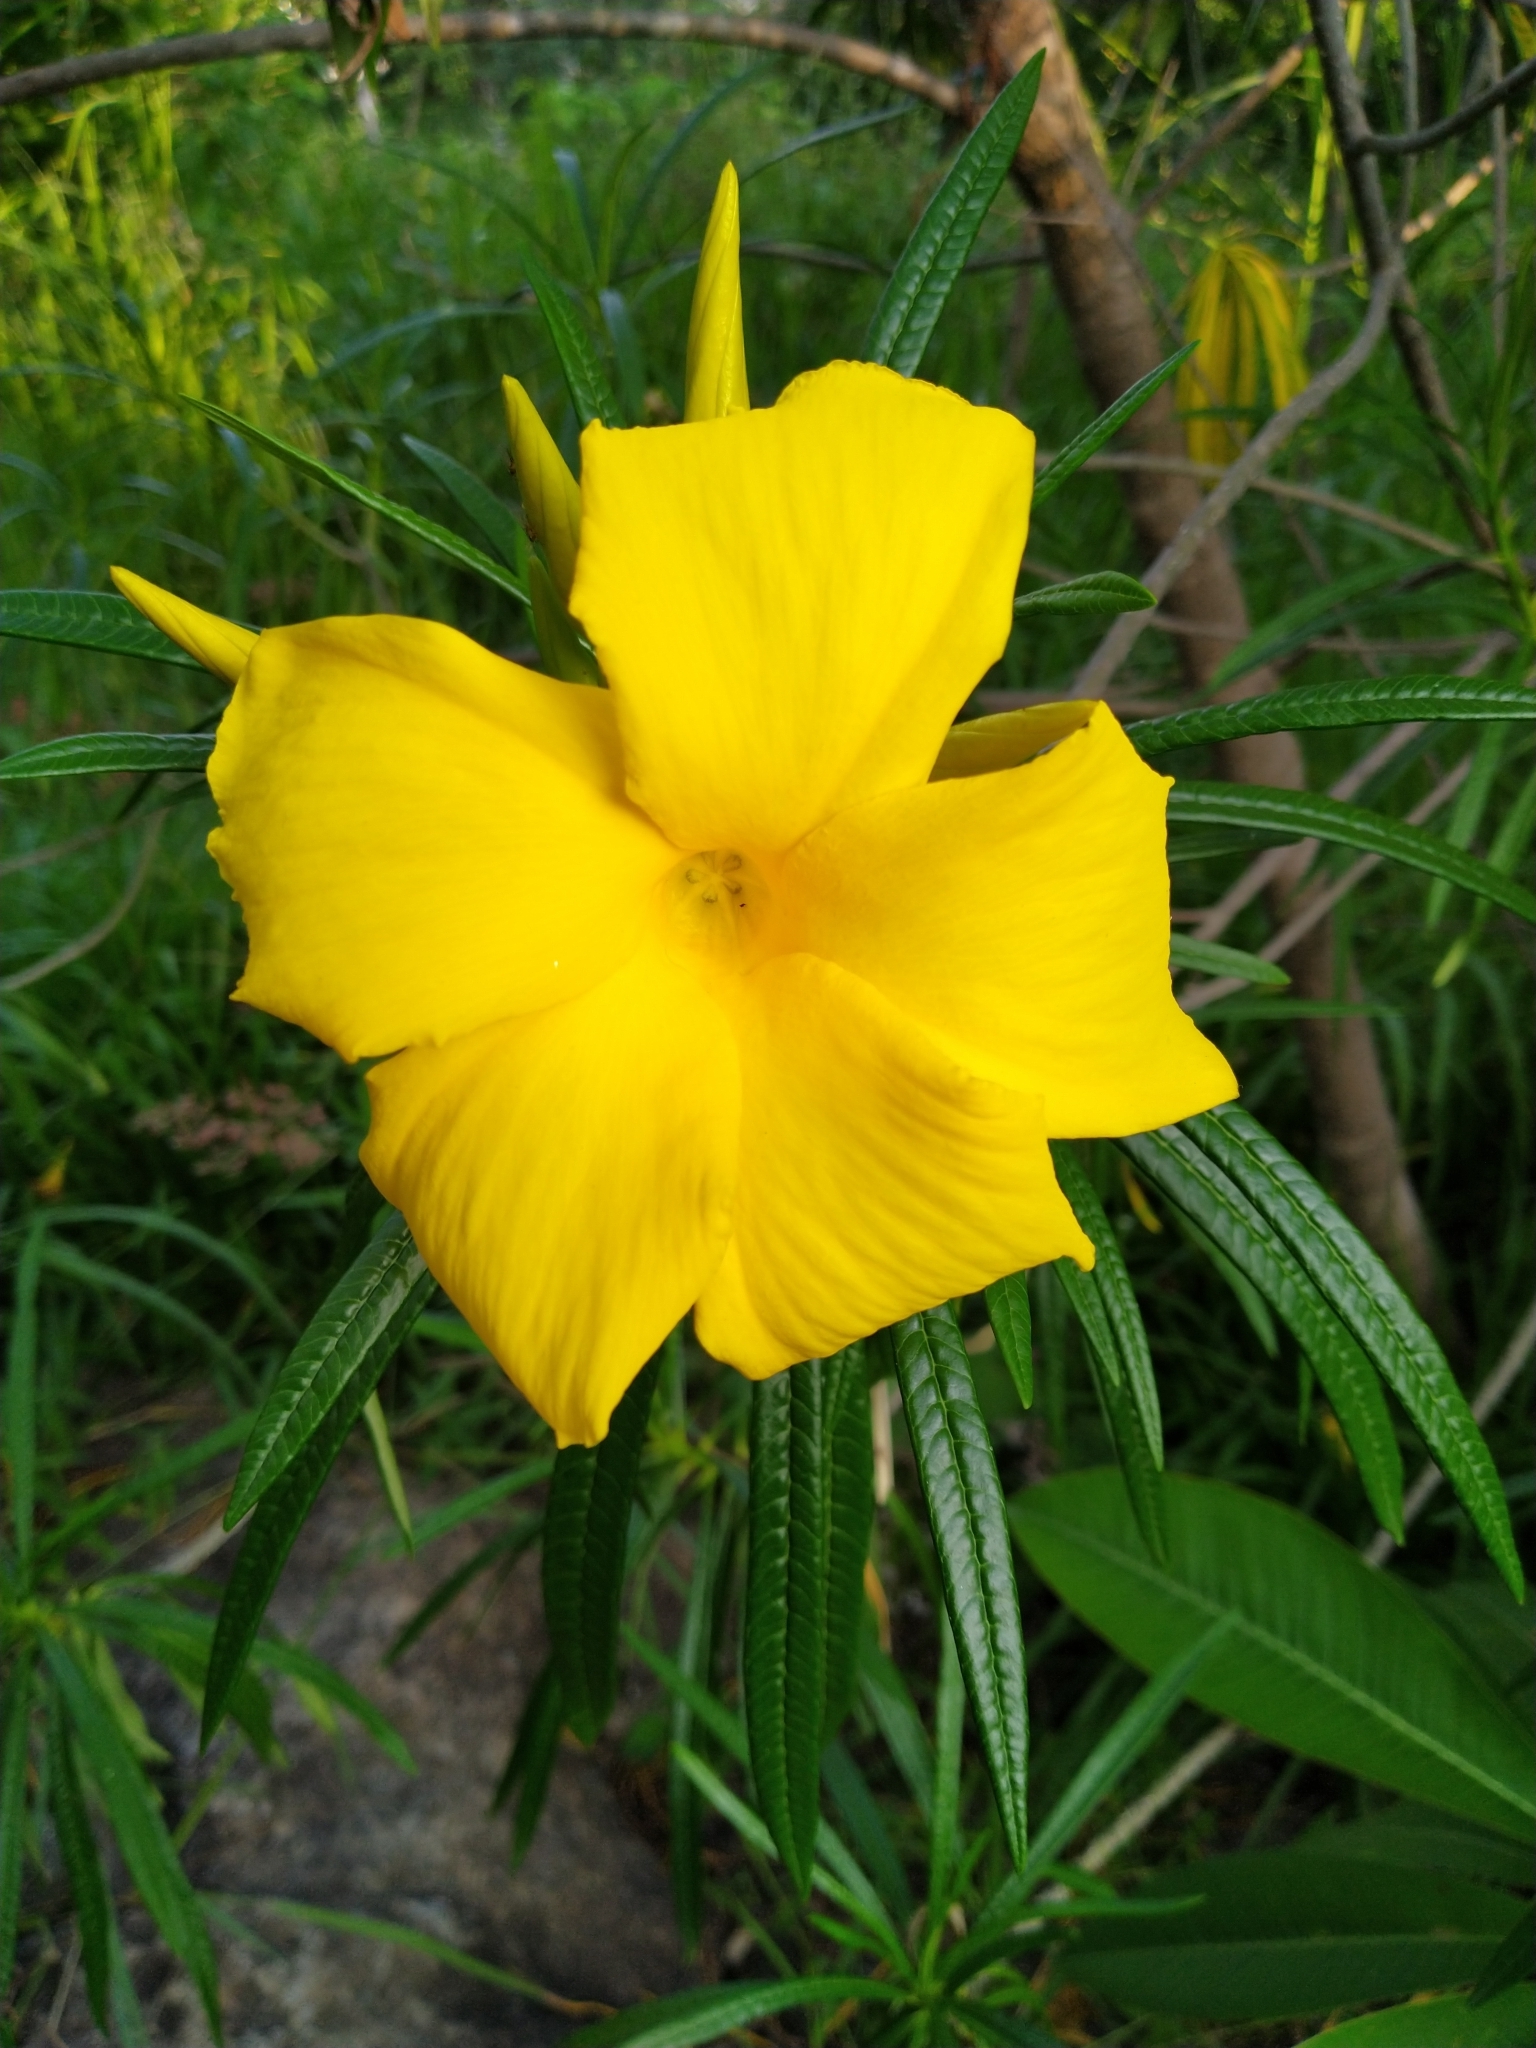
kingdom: Plantae
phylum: Tracheophyta
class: Magnoliopsida
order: Gentianales
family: Apocynaceae
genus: Cascabela
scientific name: Cascabela thevetioides
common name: Yellow oleander
